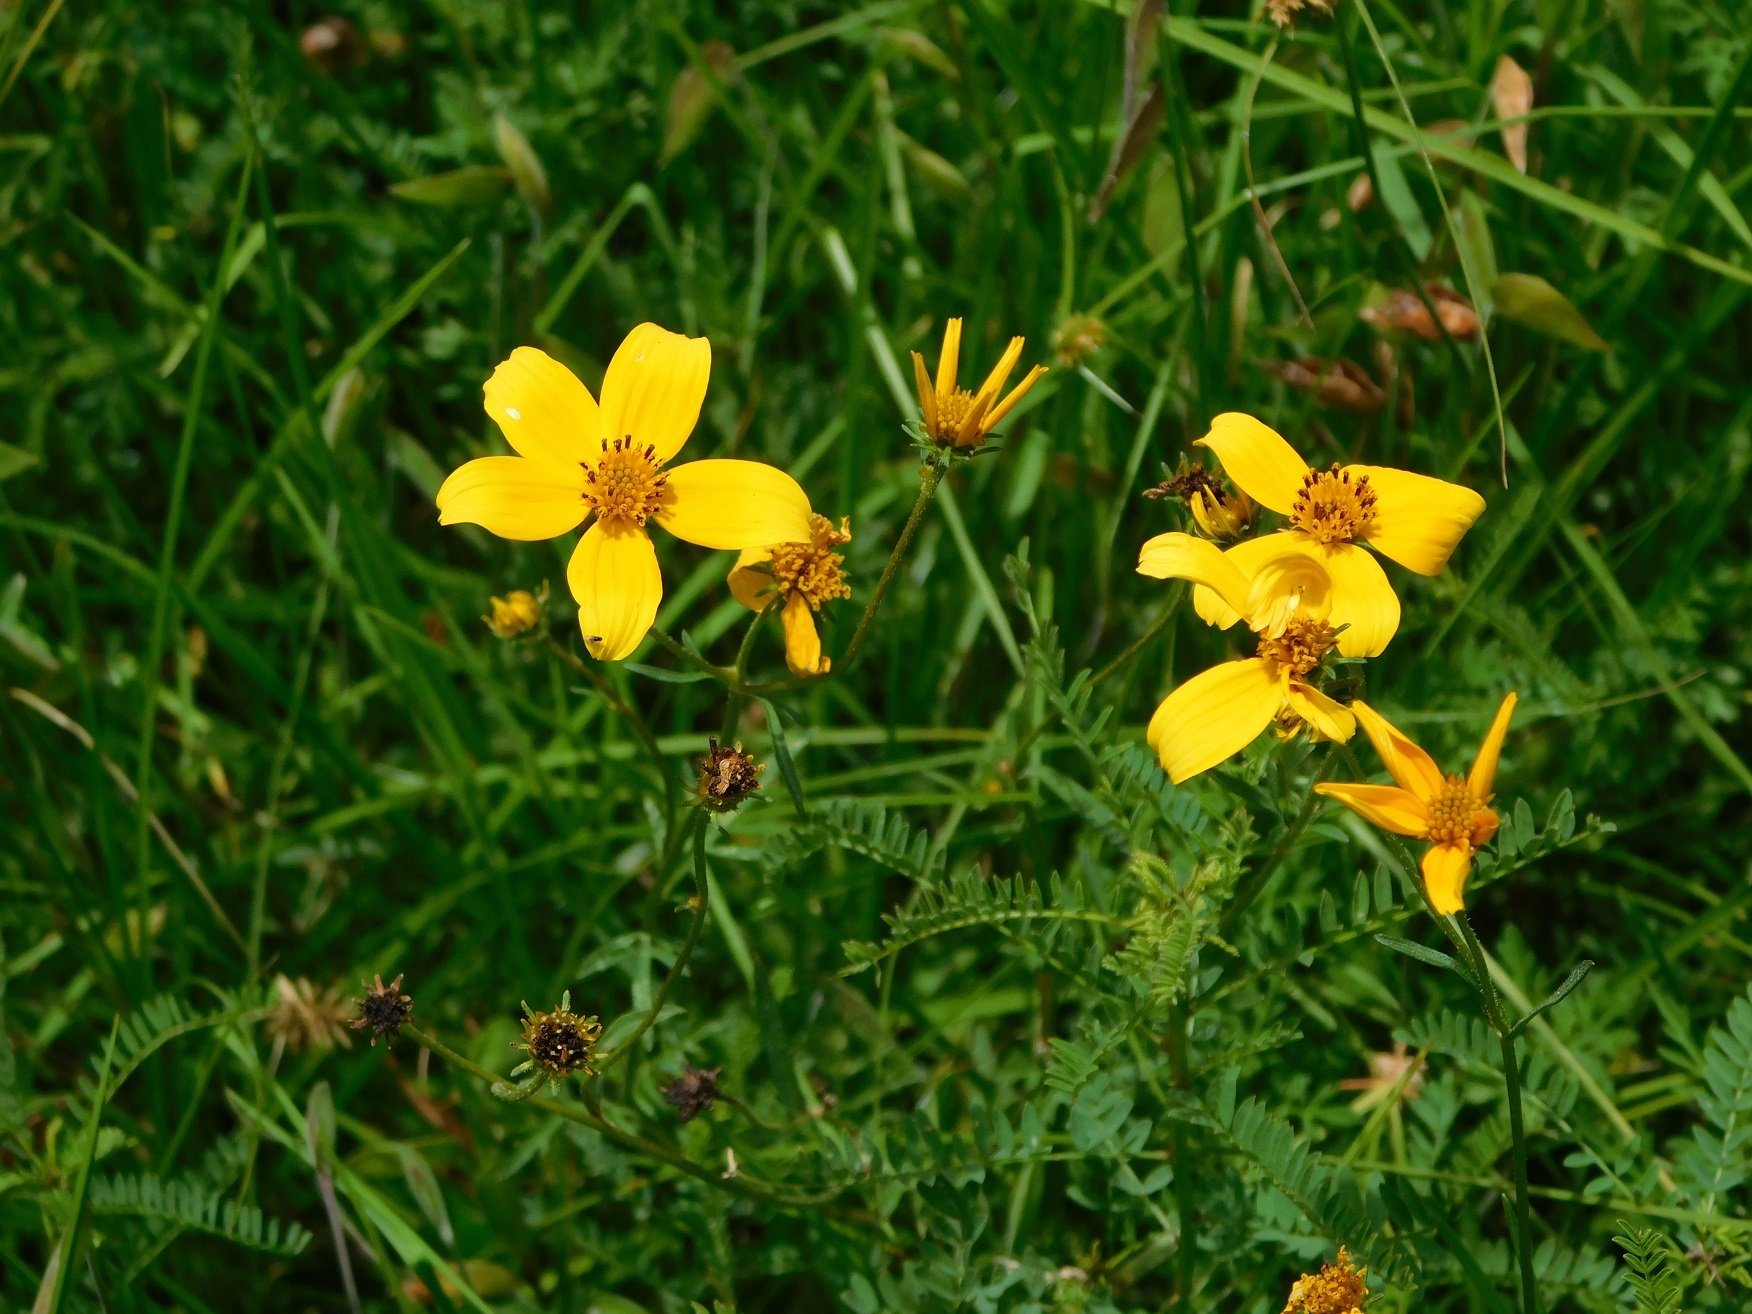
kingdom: Plantae
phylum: Tracheophyta
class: Magnoliopsida
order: Asterales
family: Asteraceae
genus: Bidens
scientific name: Bidens triplinervia
